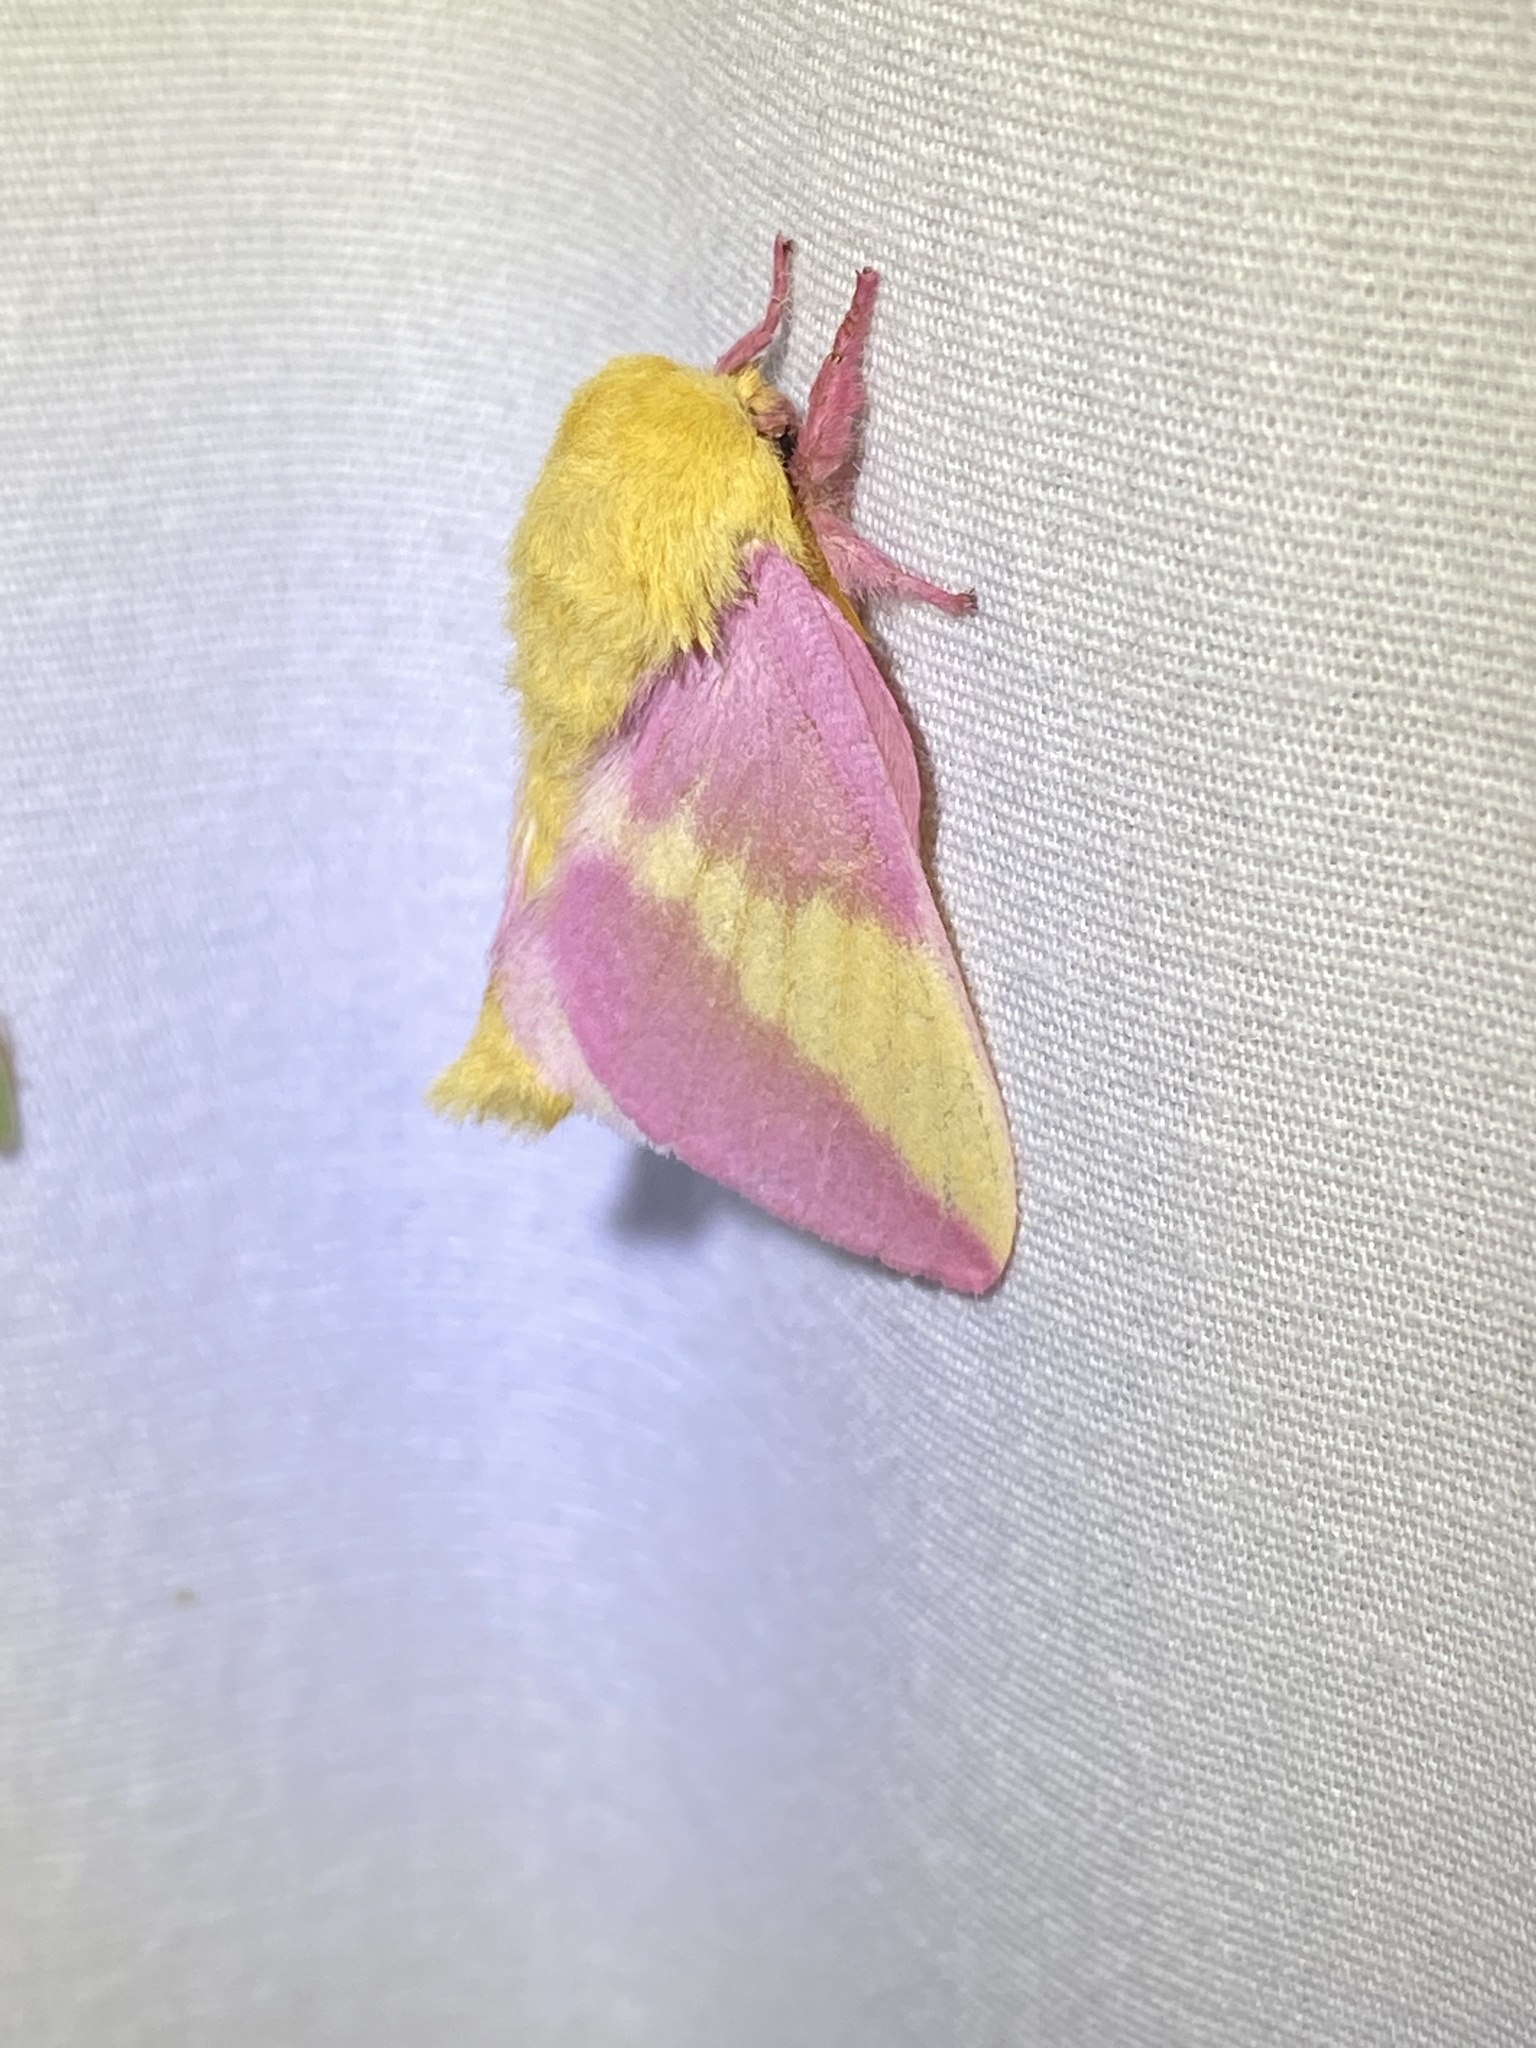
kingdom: Animalia
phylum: Arthropoda
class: Insecta
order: Lepidoptera
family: Saturniidae
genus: Dryocampa
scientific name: Dryocampa rubicunda
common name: Rosy maple moth
